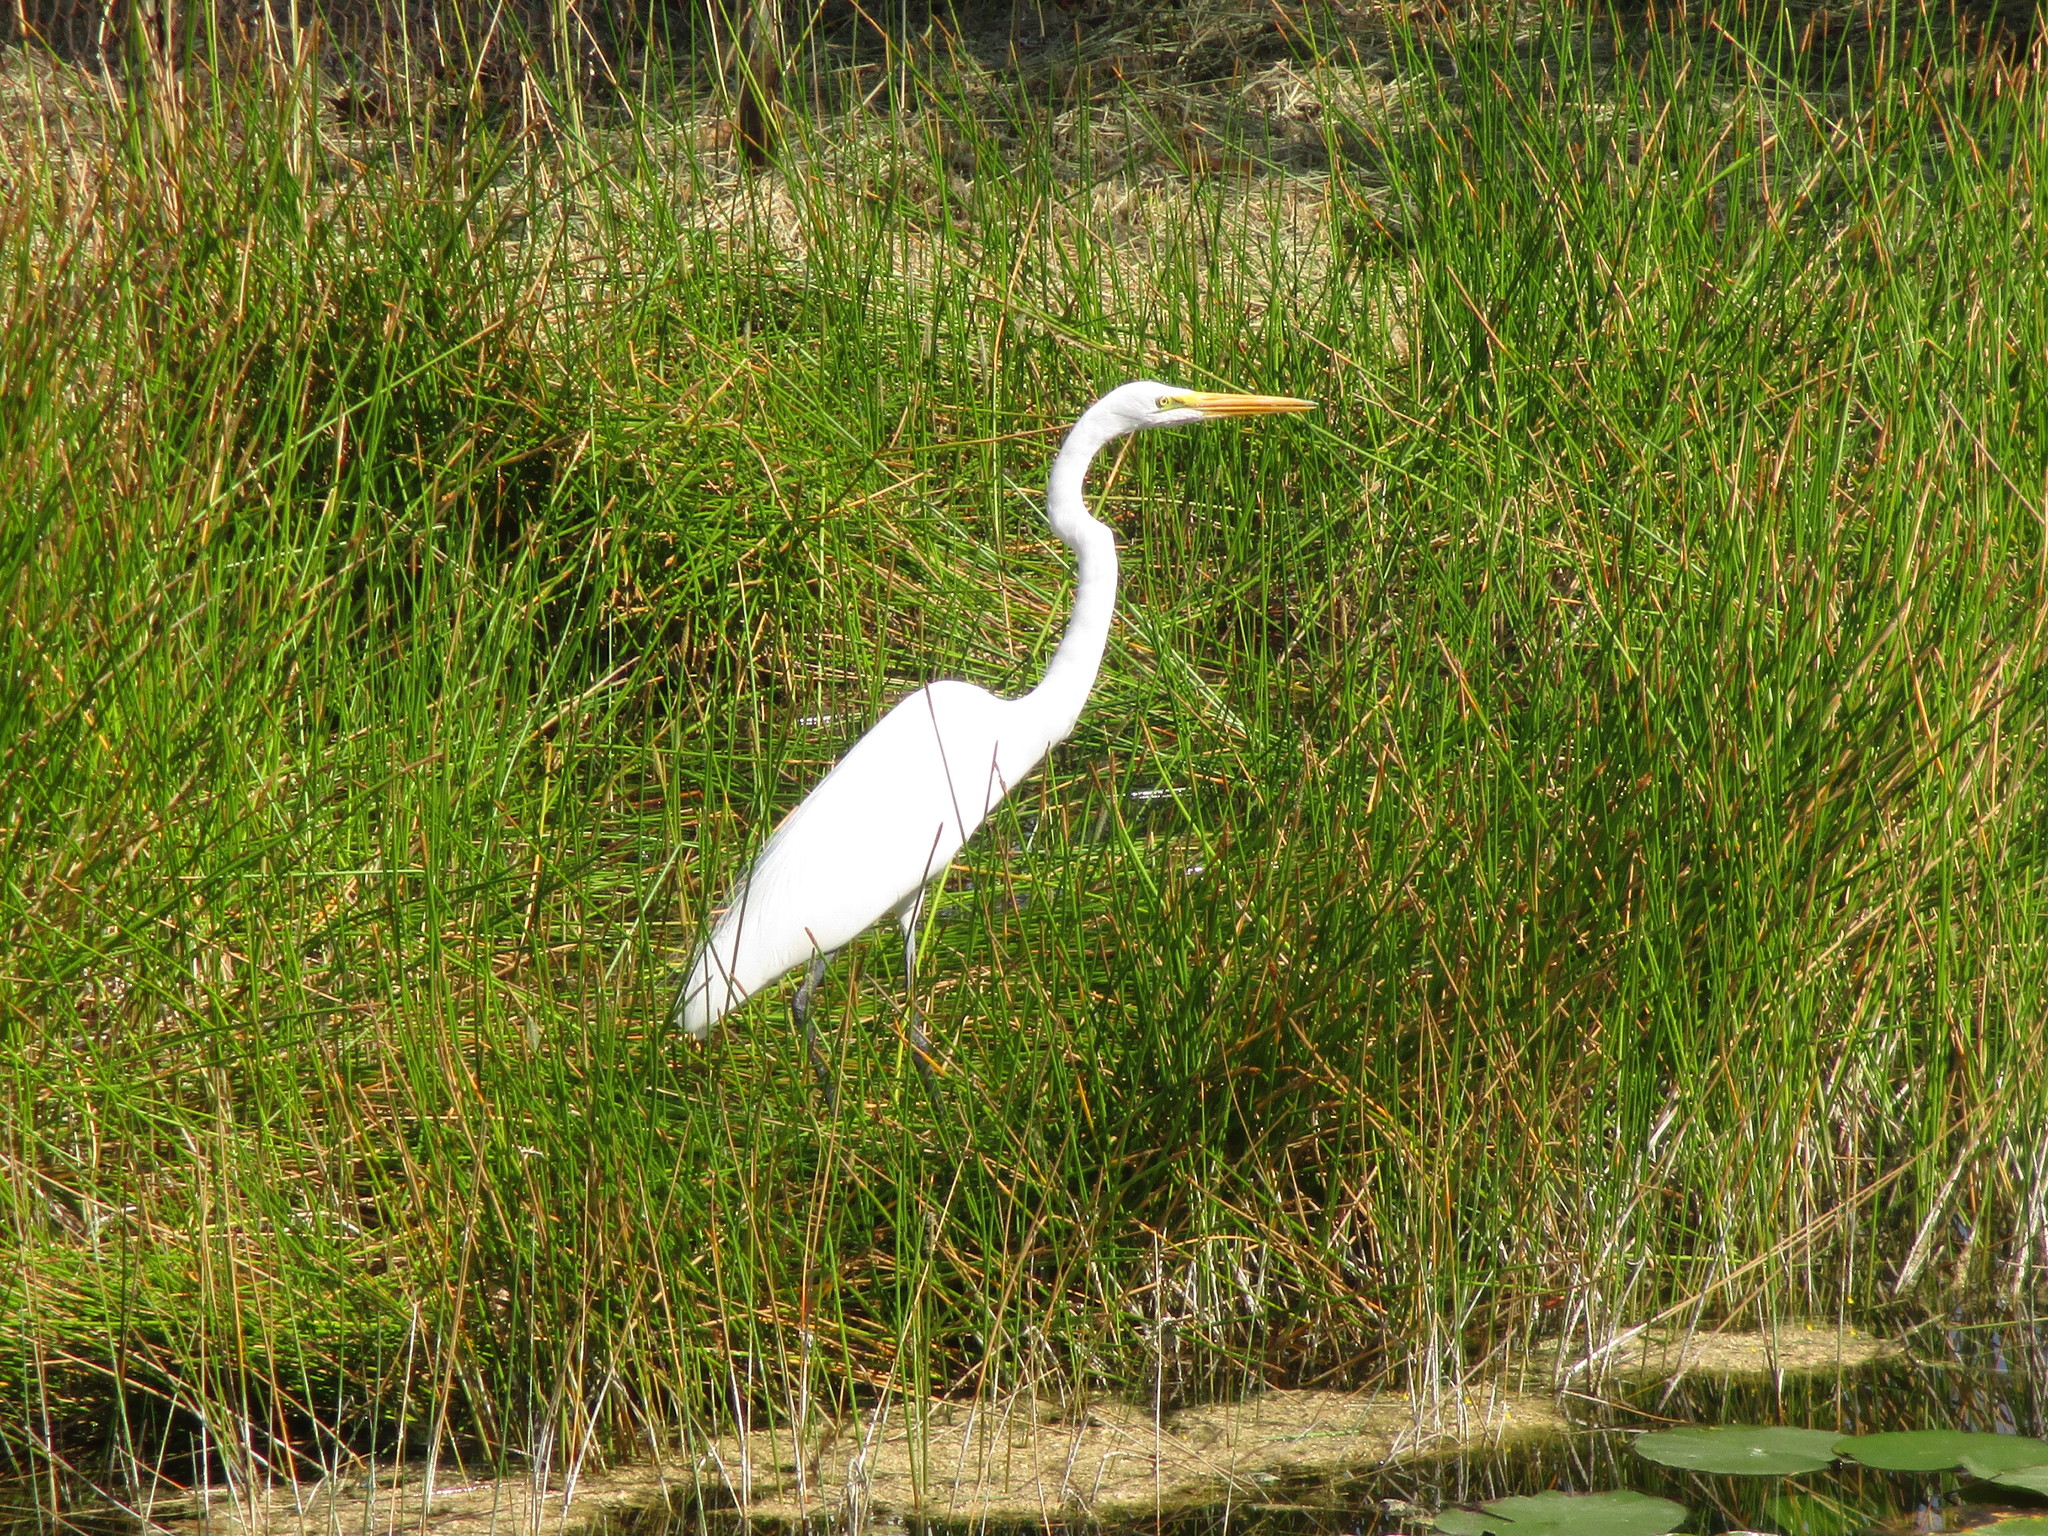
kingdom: Animalia
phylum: Chordata
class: Aves
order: Pelecaniformes
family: Ardeidae
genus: Ardea
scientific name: Ardea alba
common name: Great egret
